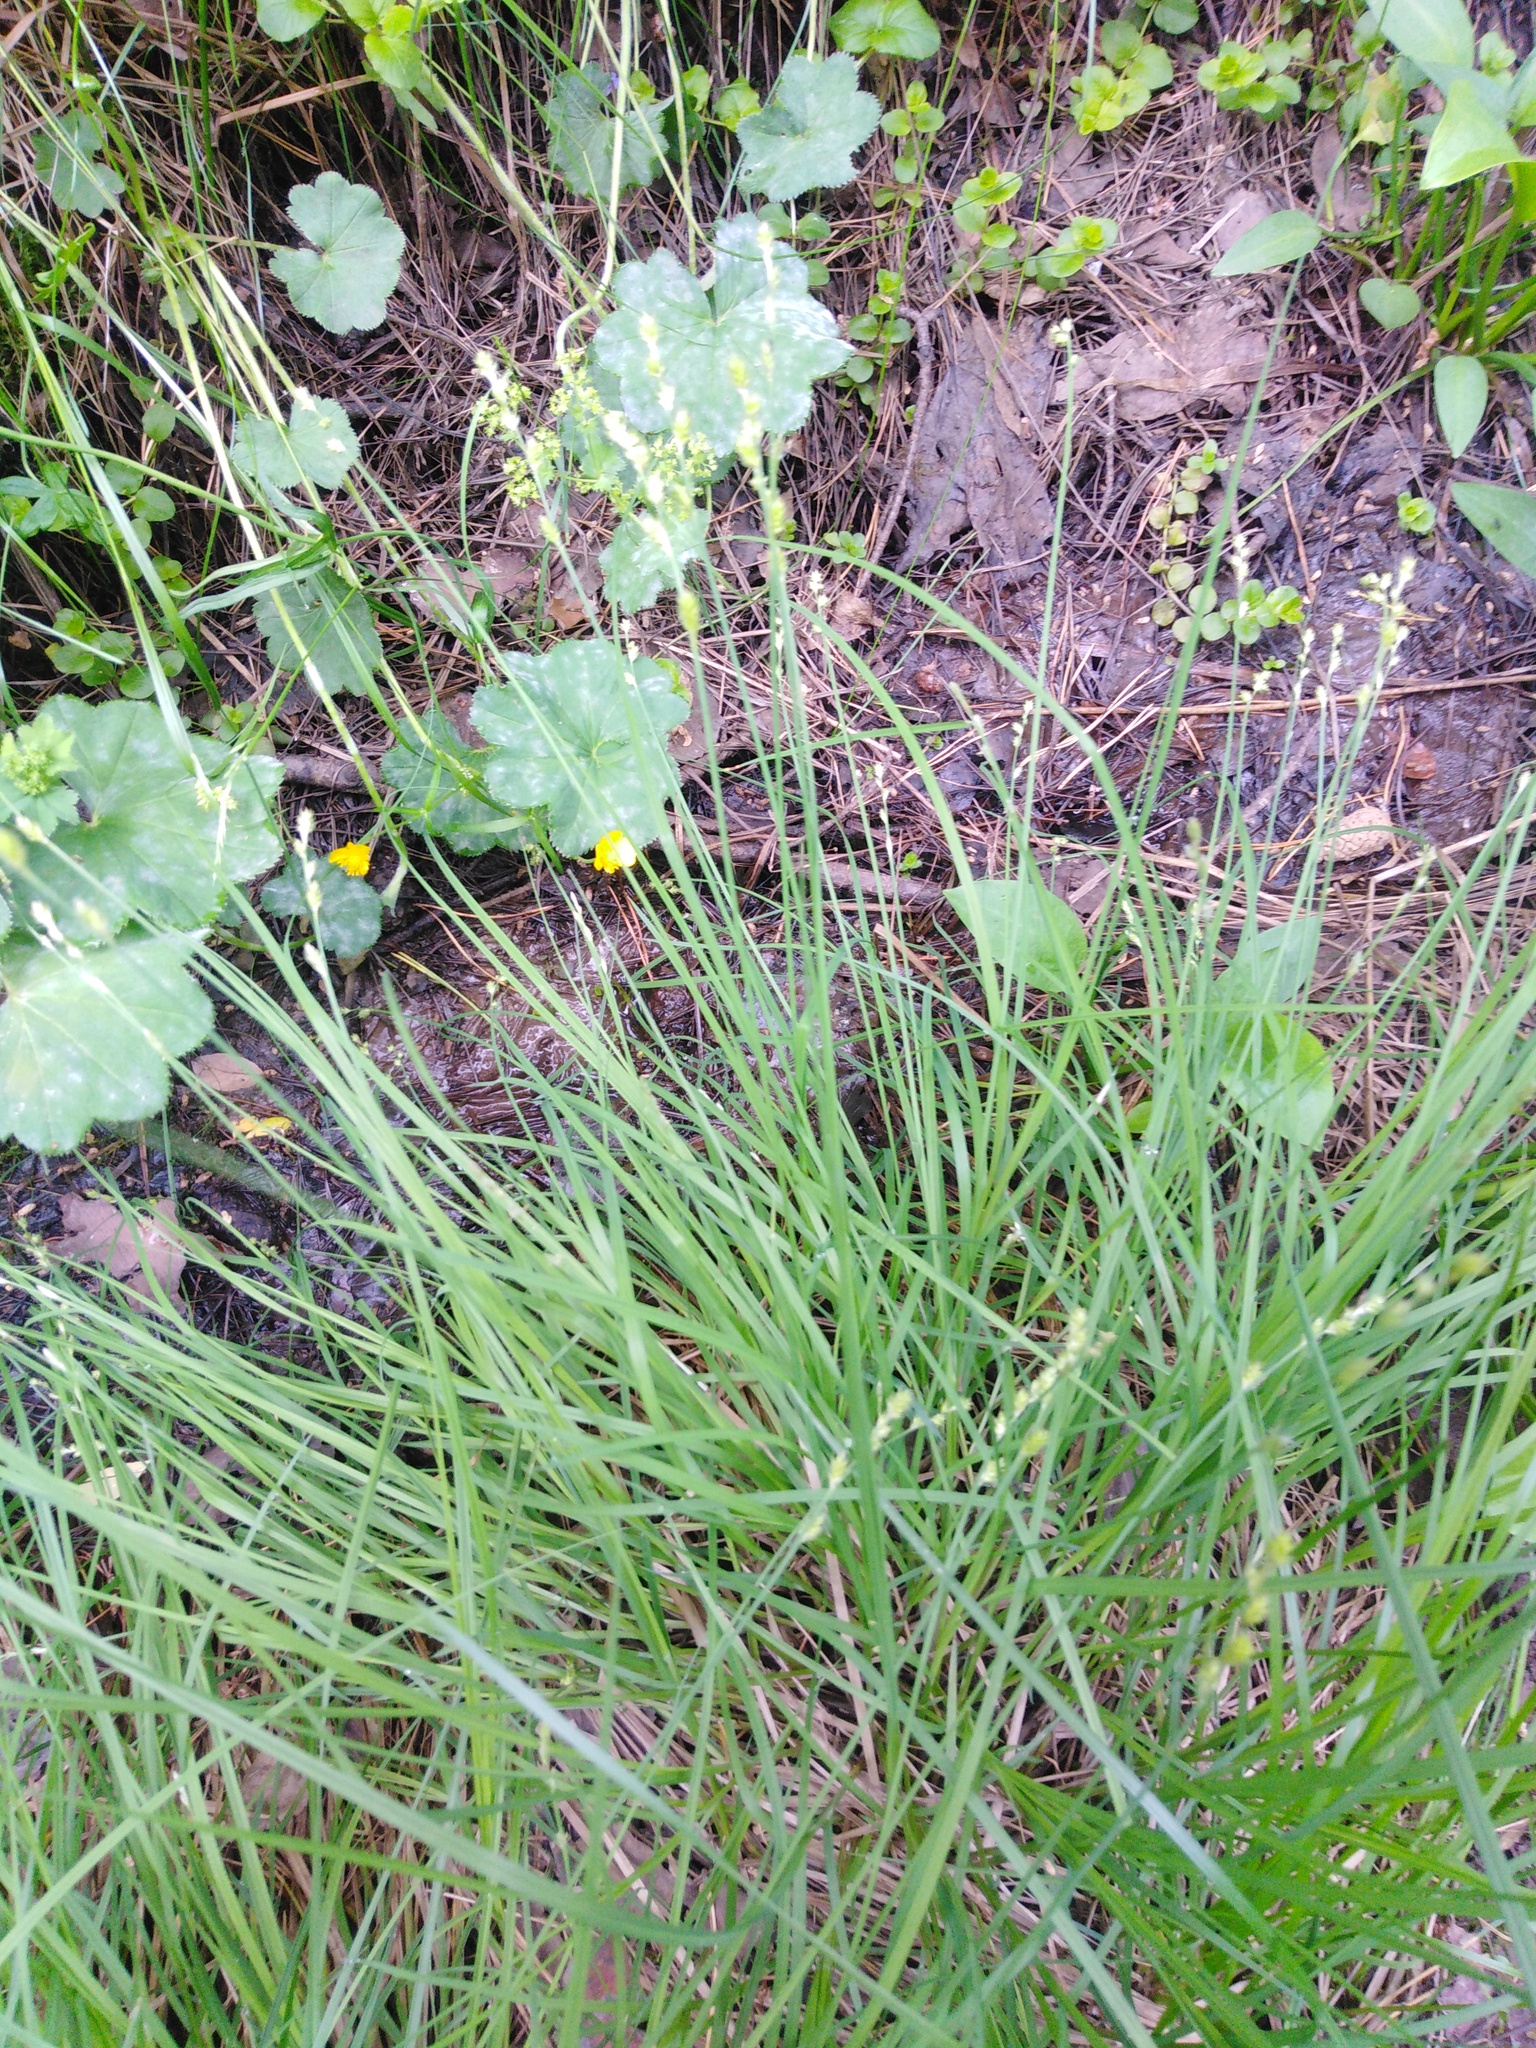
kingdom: Plantae
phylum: Tracheophyta
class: Liliopsida
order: Poales
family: Cyperaceae
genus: Carex
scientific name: Carex canescens
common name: White sedge
